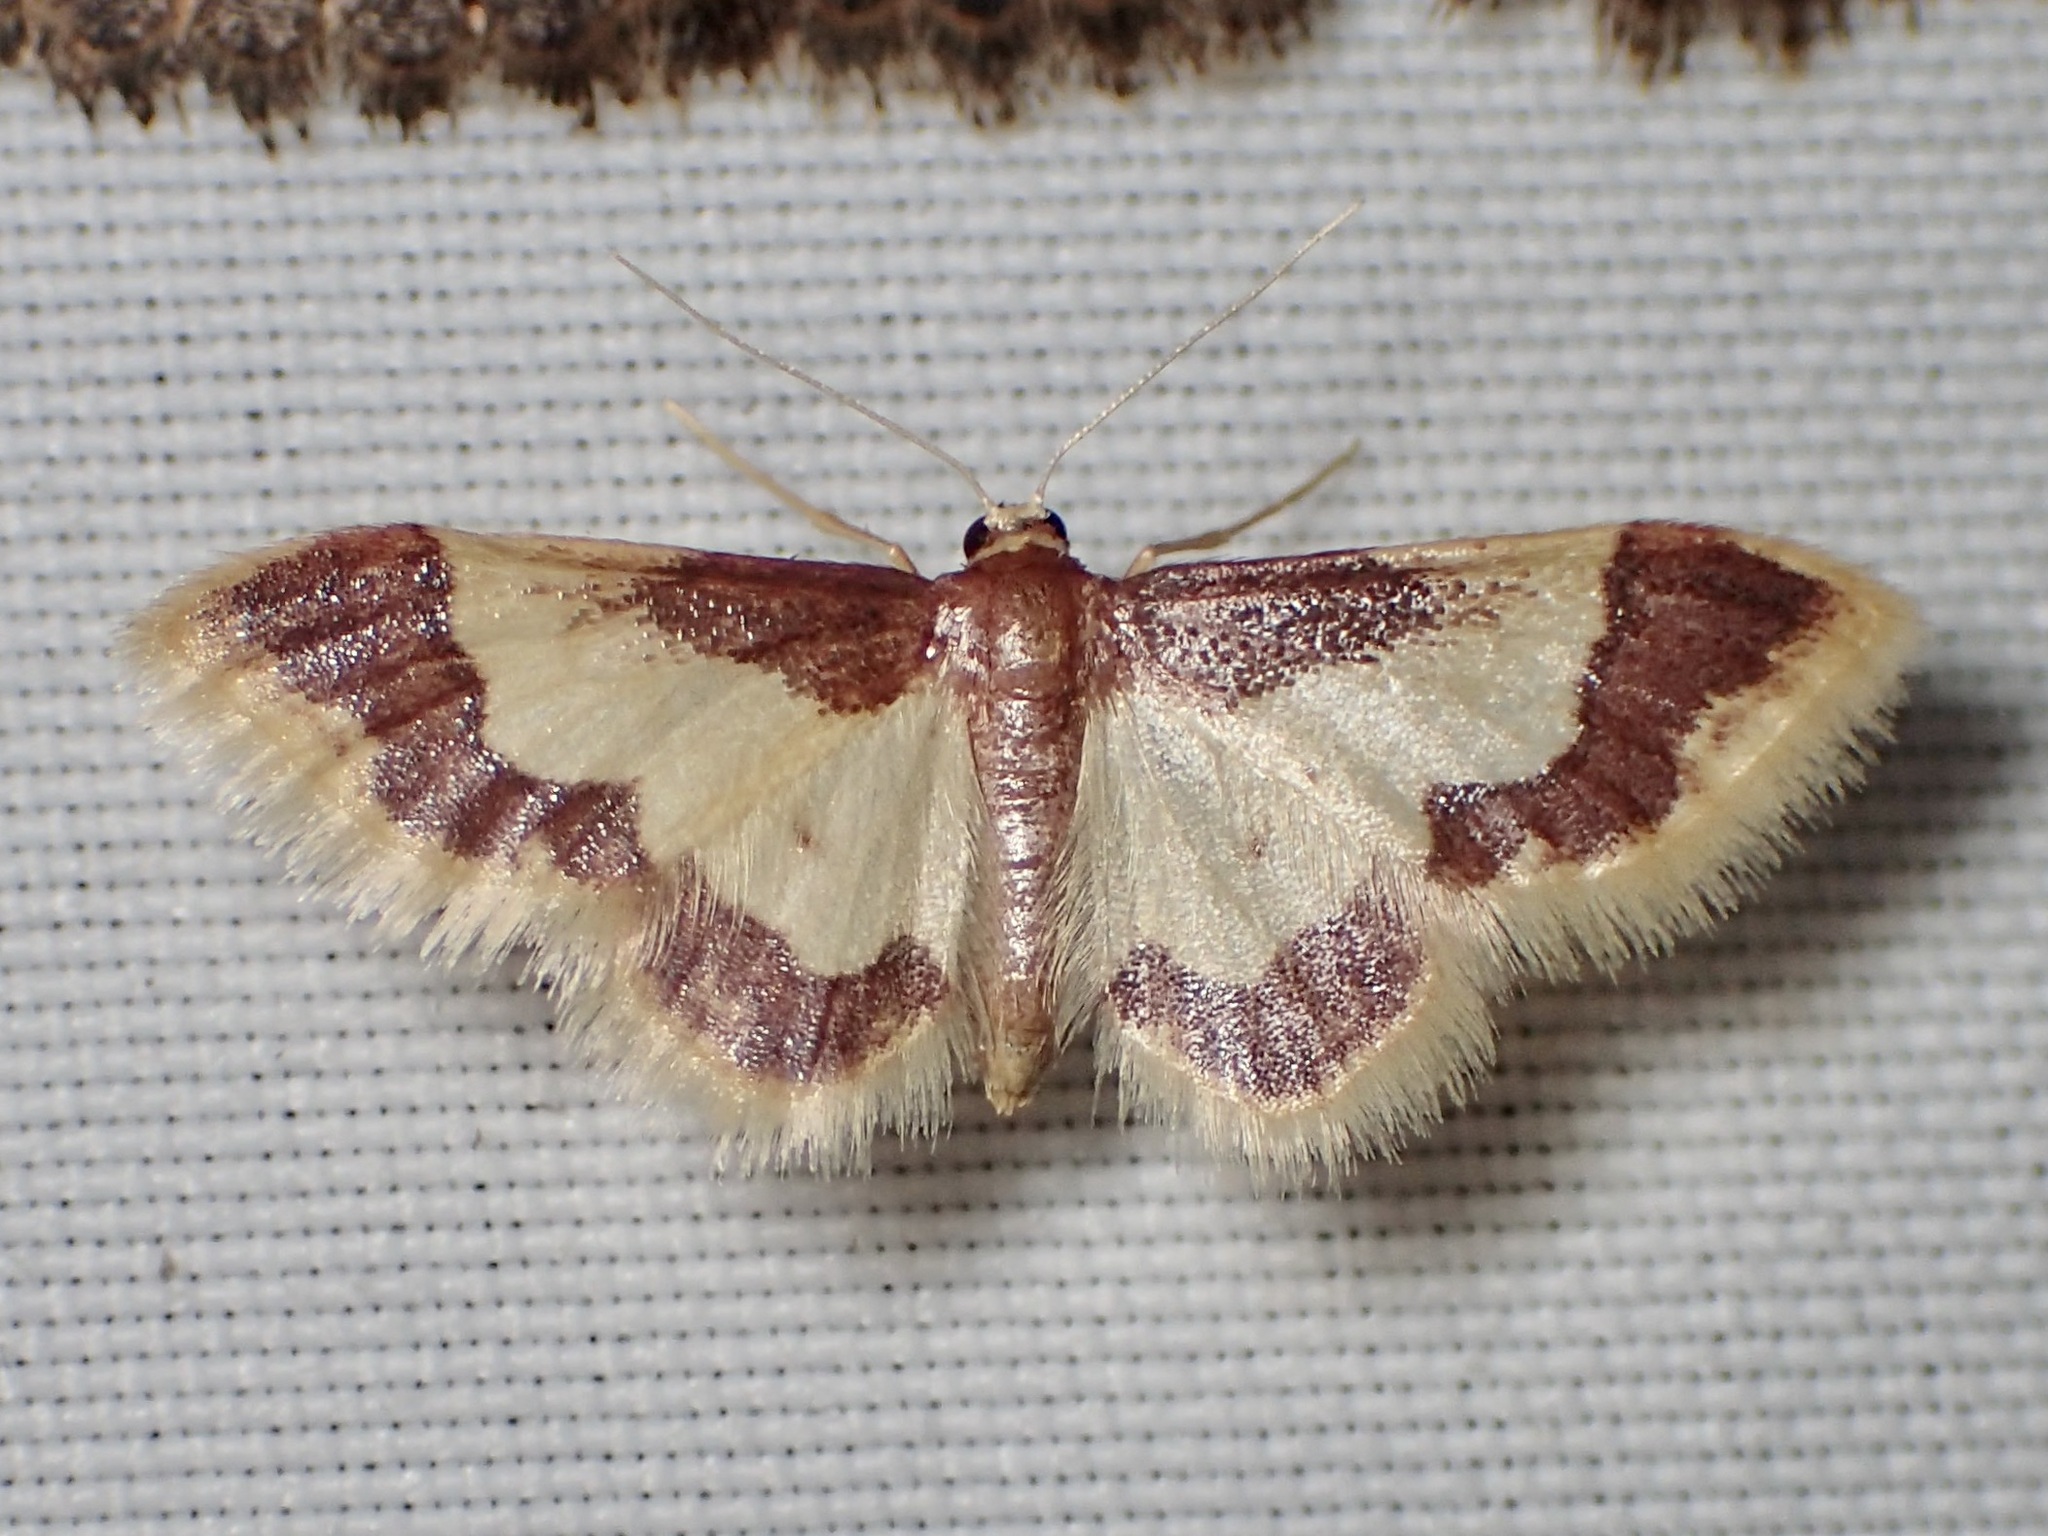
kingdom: Animalia
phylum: Arthropoda
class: Insecta
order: Lepidoptera
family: Geometridae
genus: Idaea
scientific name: Idaea basinta
